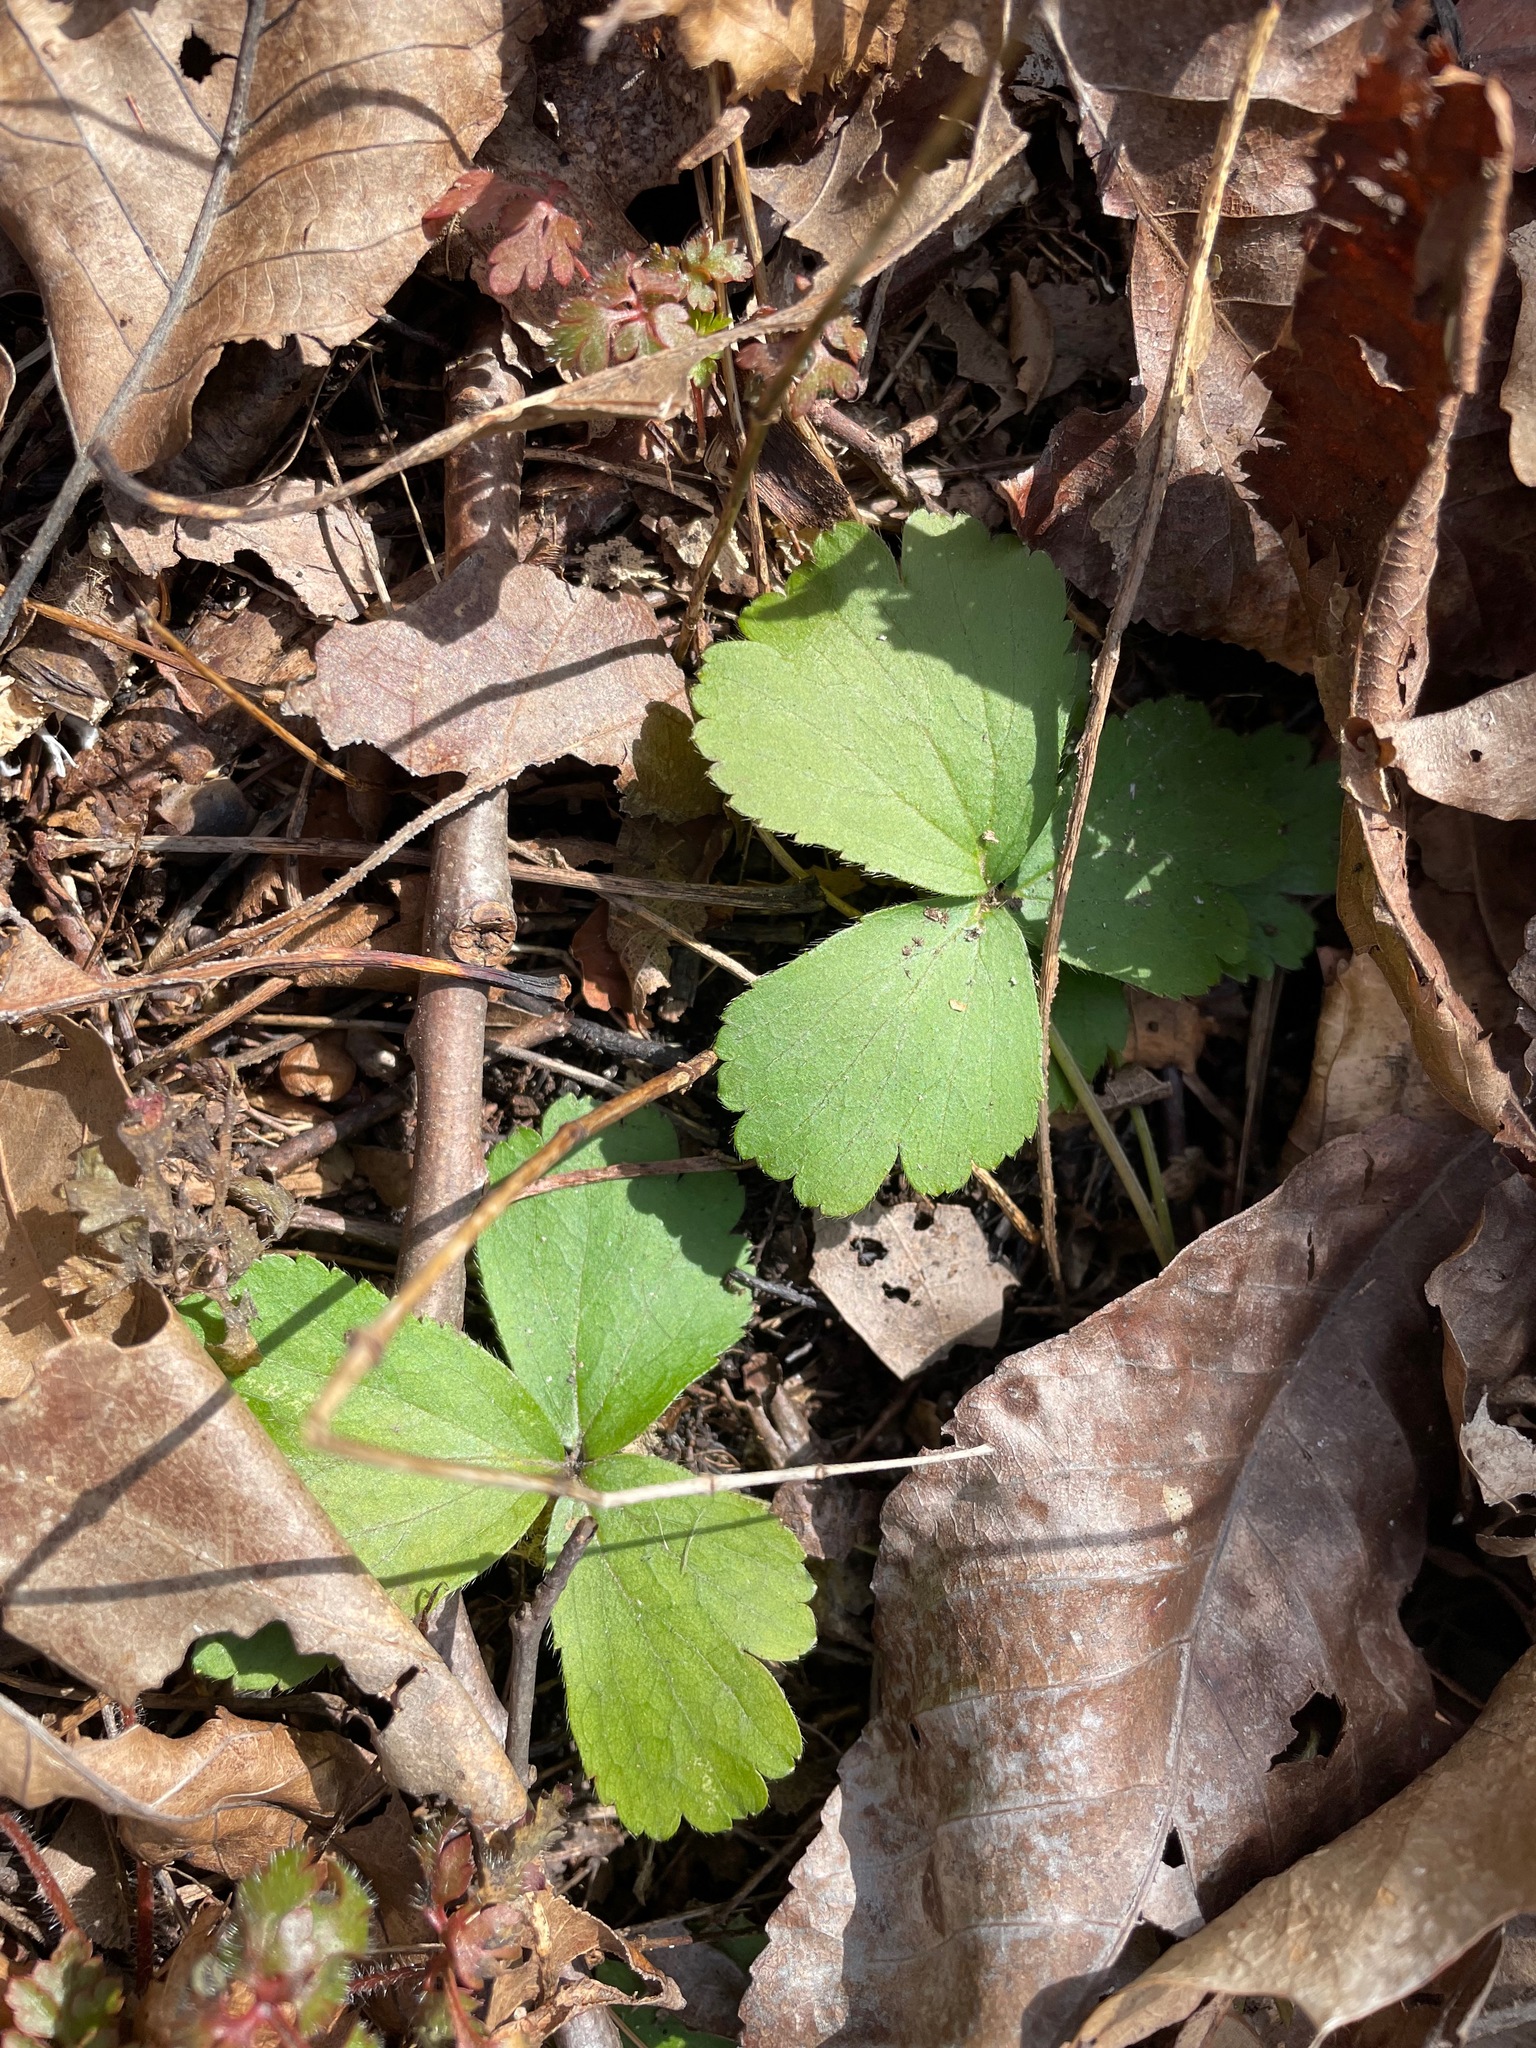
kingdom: Plantae
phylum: Tracheophyta
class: Magnoliopsida
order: Rosales
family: Rosaceae
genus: Geum
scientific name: Geum fragarioides
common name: Appalachian barren strawberry
